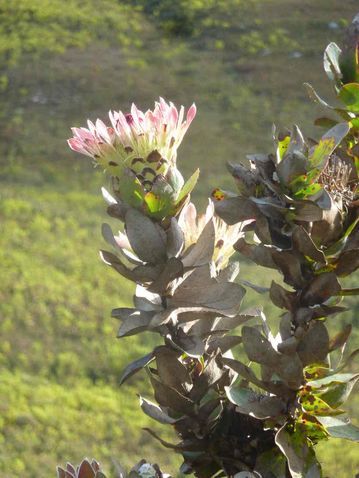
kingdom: Plantae
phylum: Tracheophyta
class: Magnoliopsida
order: Proteales
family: Proteaceae
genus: Protea
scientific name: Protea eximia
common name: Broad-leaved sugarbush
